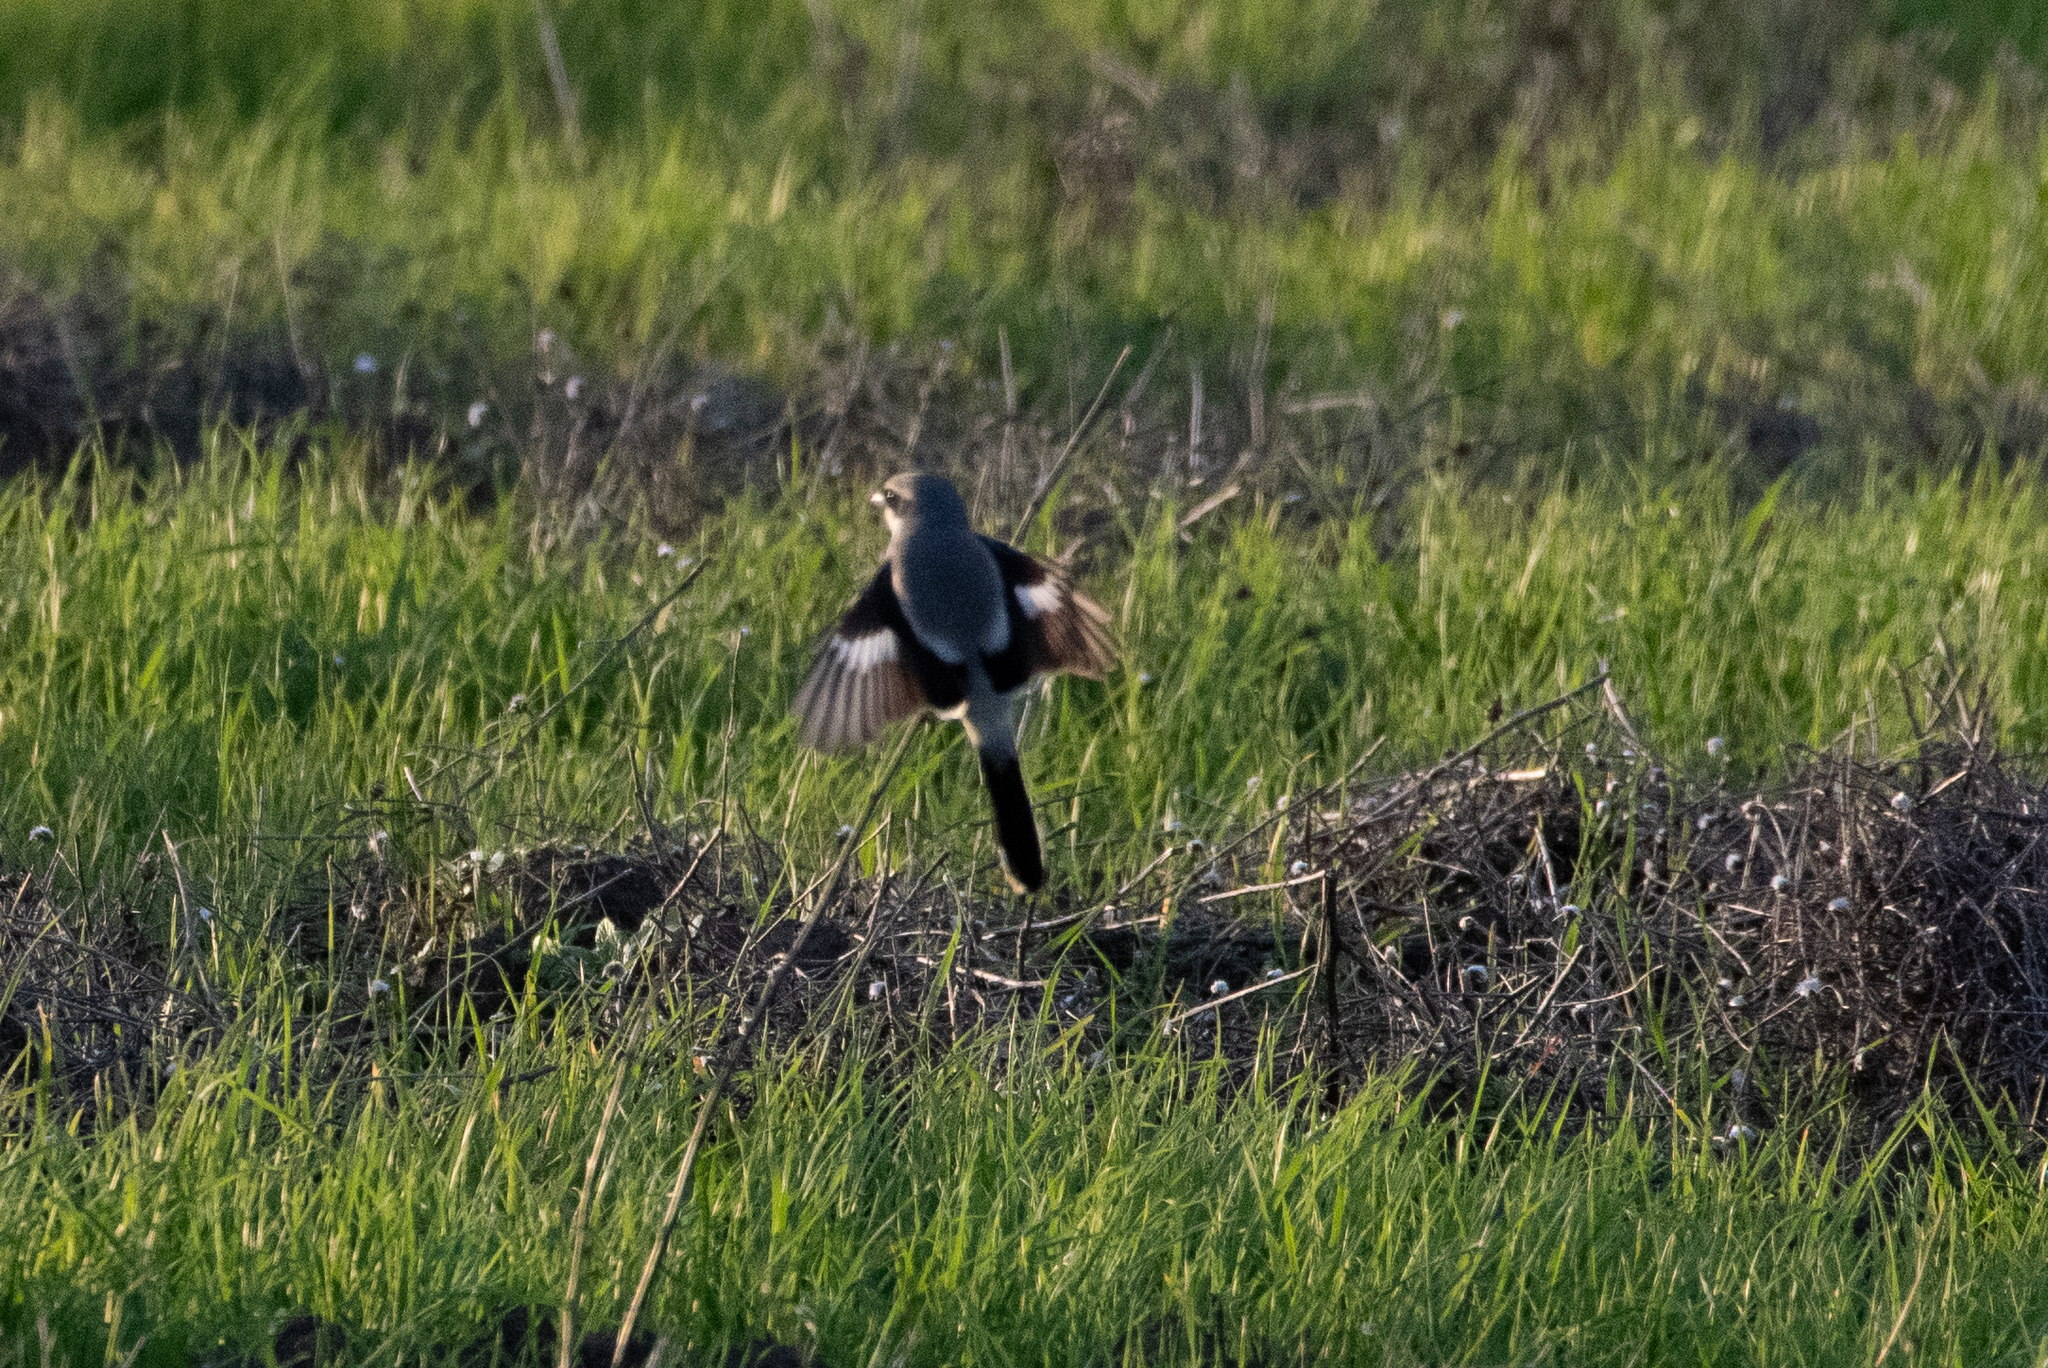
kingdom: Animalia
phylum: Chordata
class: Aves
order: Passeriformes
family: Laniidae
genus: Lanius
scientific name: Lanius ludovicianus
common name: Loggerhead shrike
